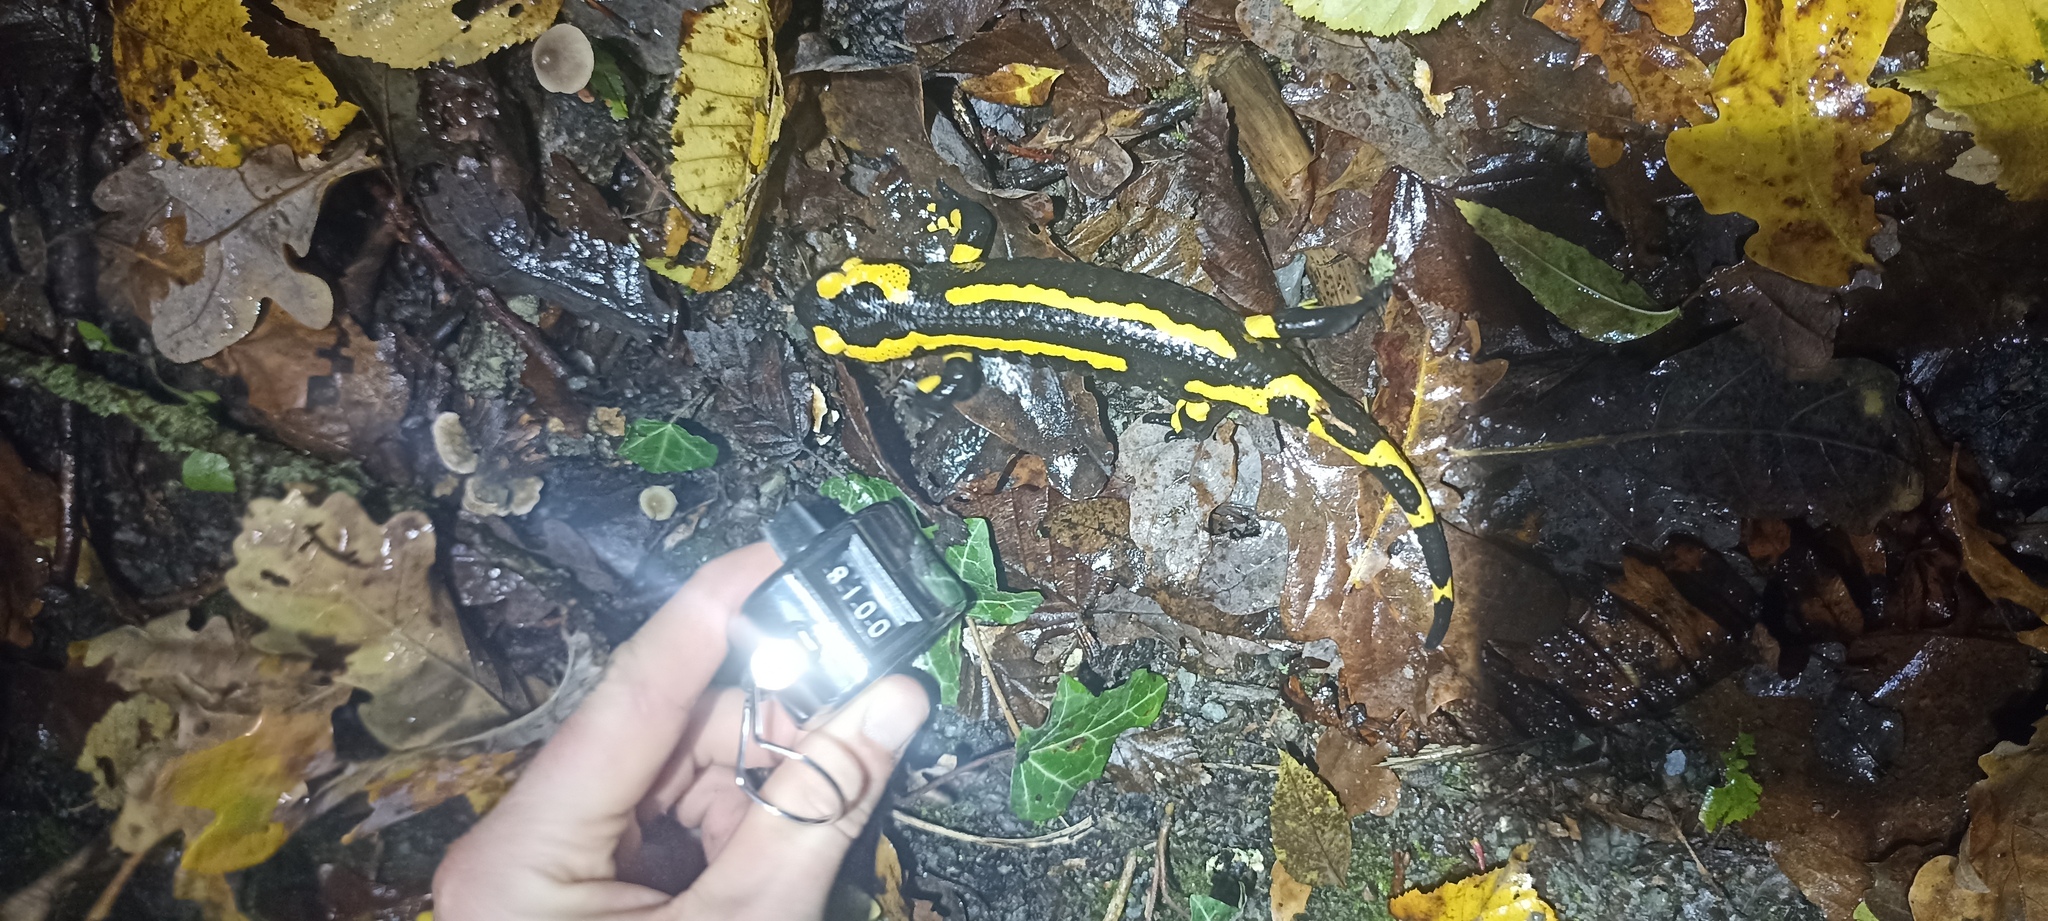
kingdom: Animalia
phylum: Chordata
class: Amphibia
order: Caudata
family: Salamandridae
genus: Salamandra
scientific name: Salamandra salamandra
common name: Fire salamander
